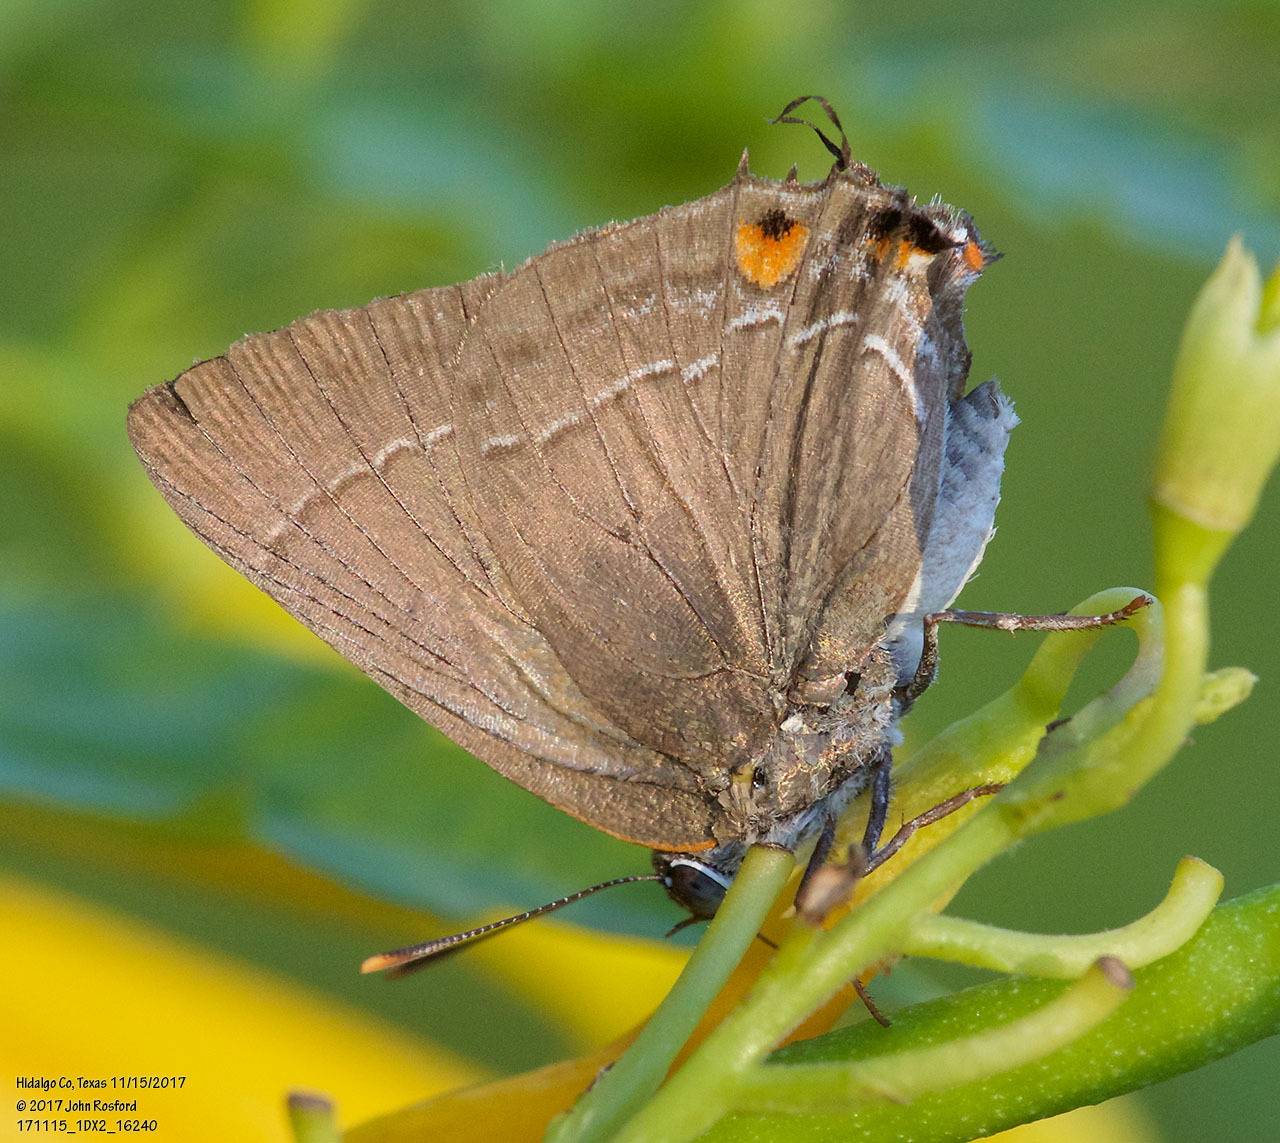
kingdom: Animalia
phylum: Arthropoda
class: Insecta
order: Lepidoptera
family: Lycaenidae
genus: Thecla
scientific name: Thecla marius
